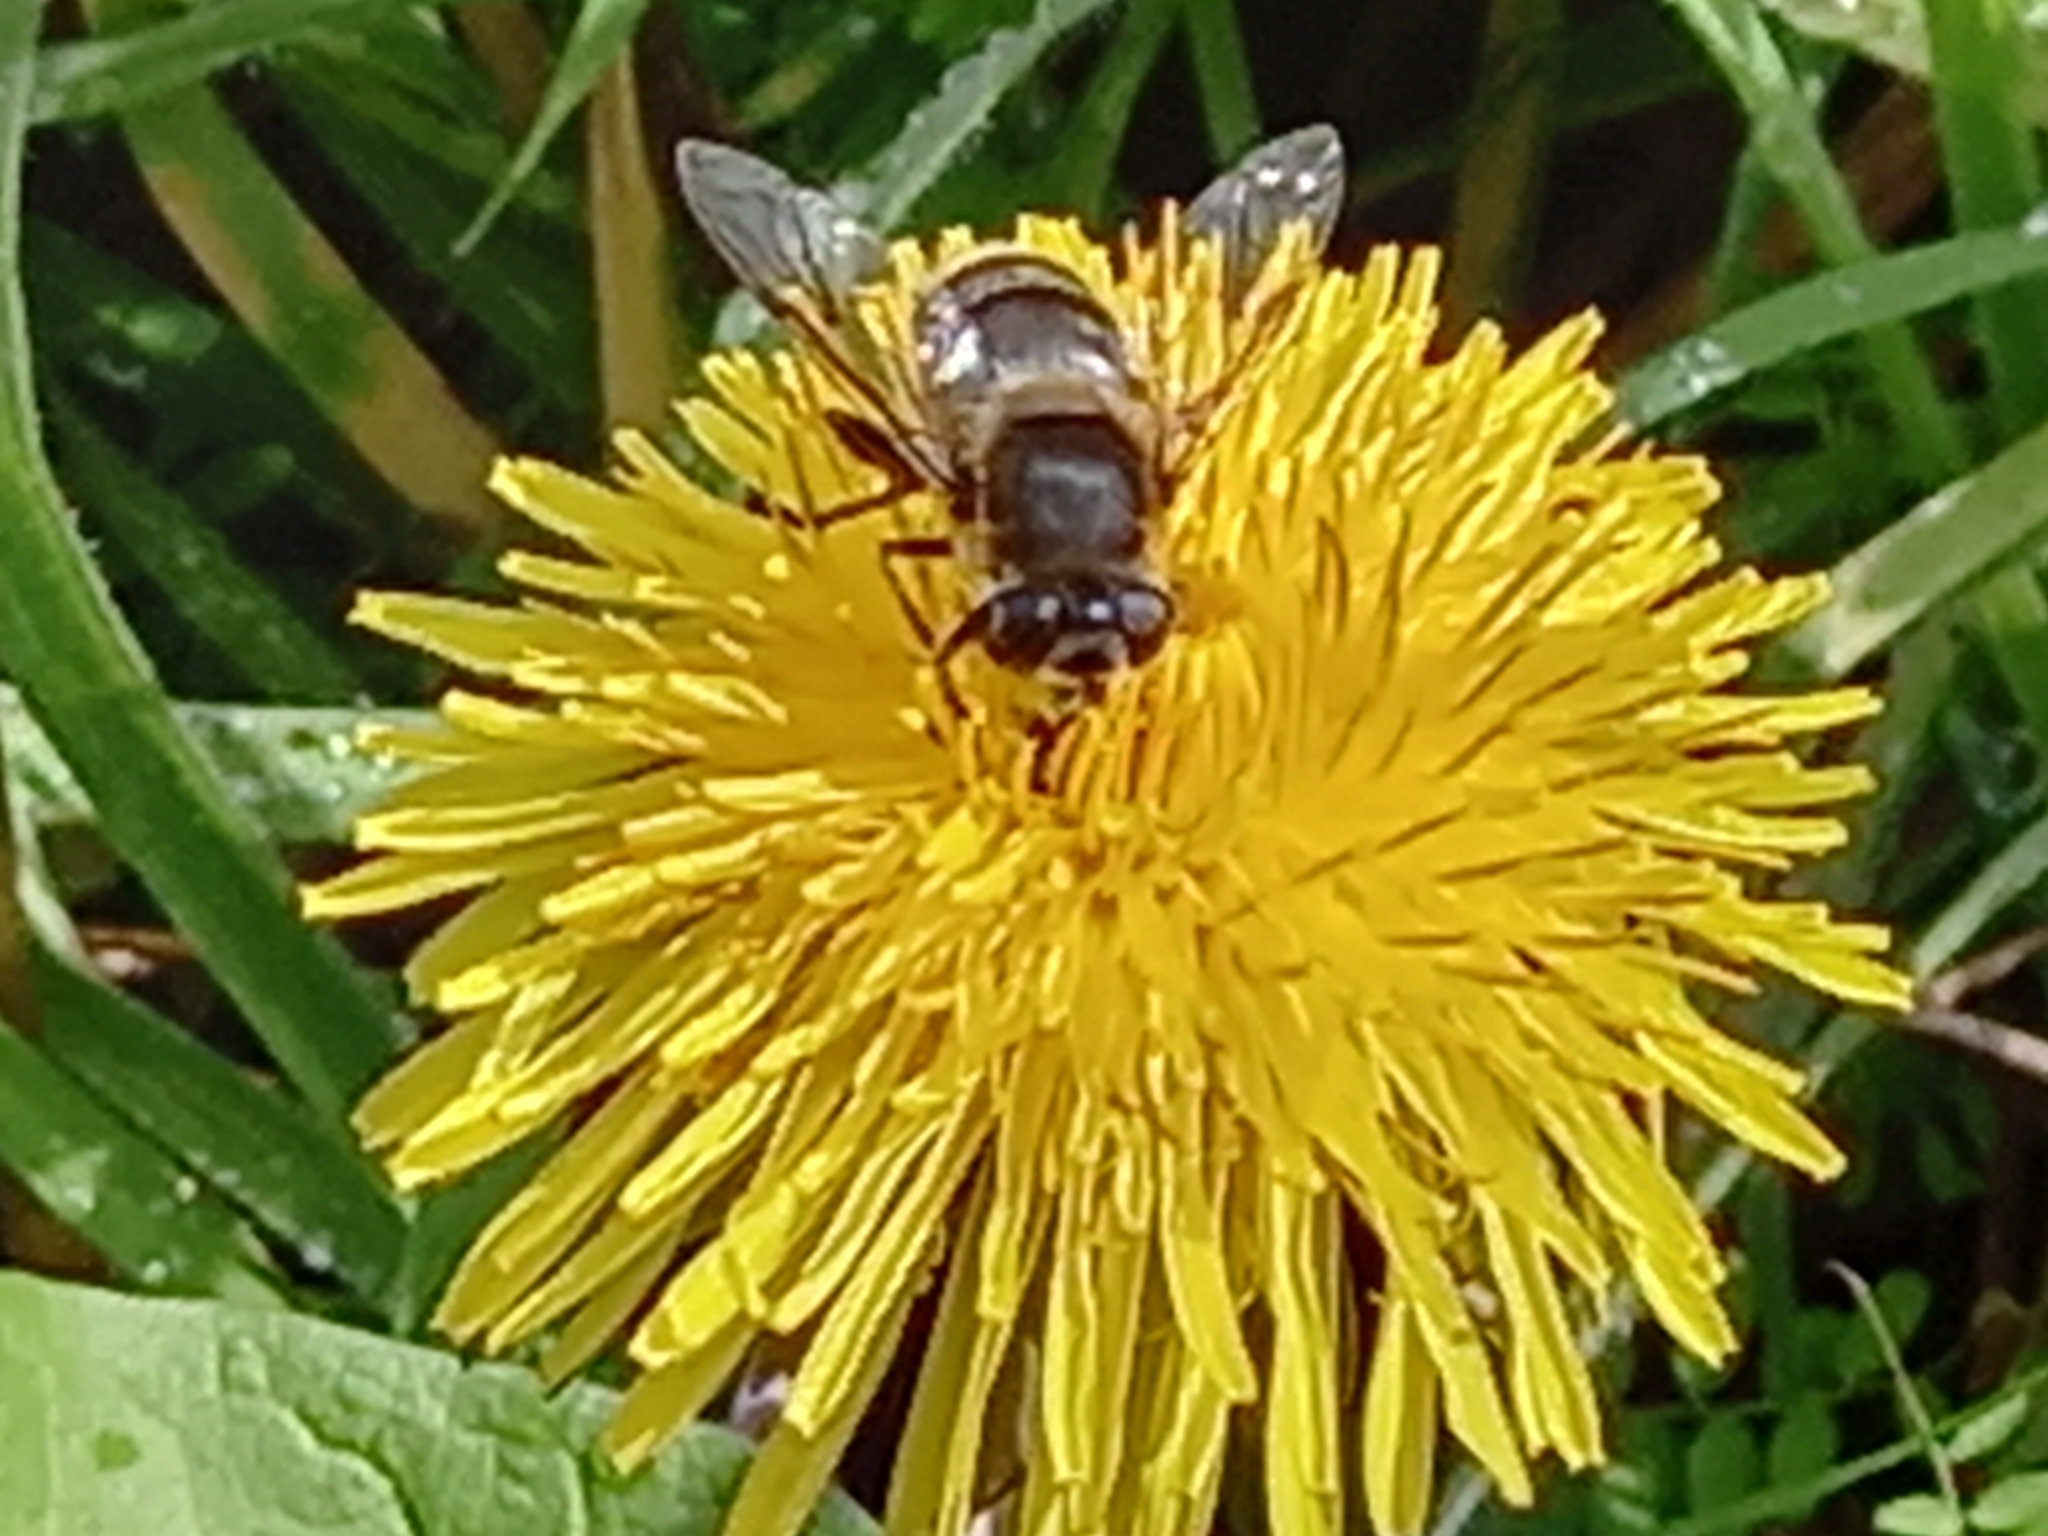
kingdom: Animalia
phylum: Arthropoda
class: Insecta
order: Diptera
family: Syrphidae
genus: Eristalis
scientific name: Eristalis tenax
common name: Drone fly
